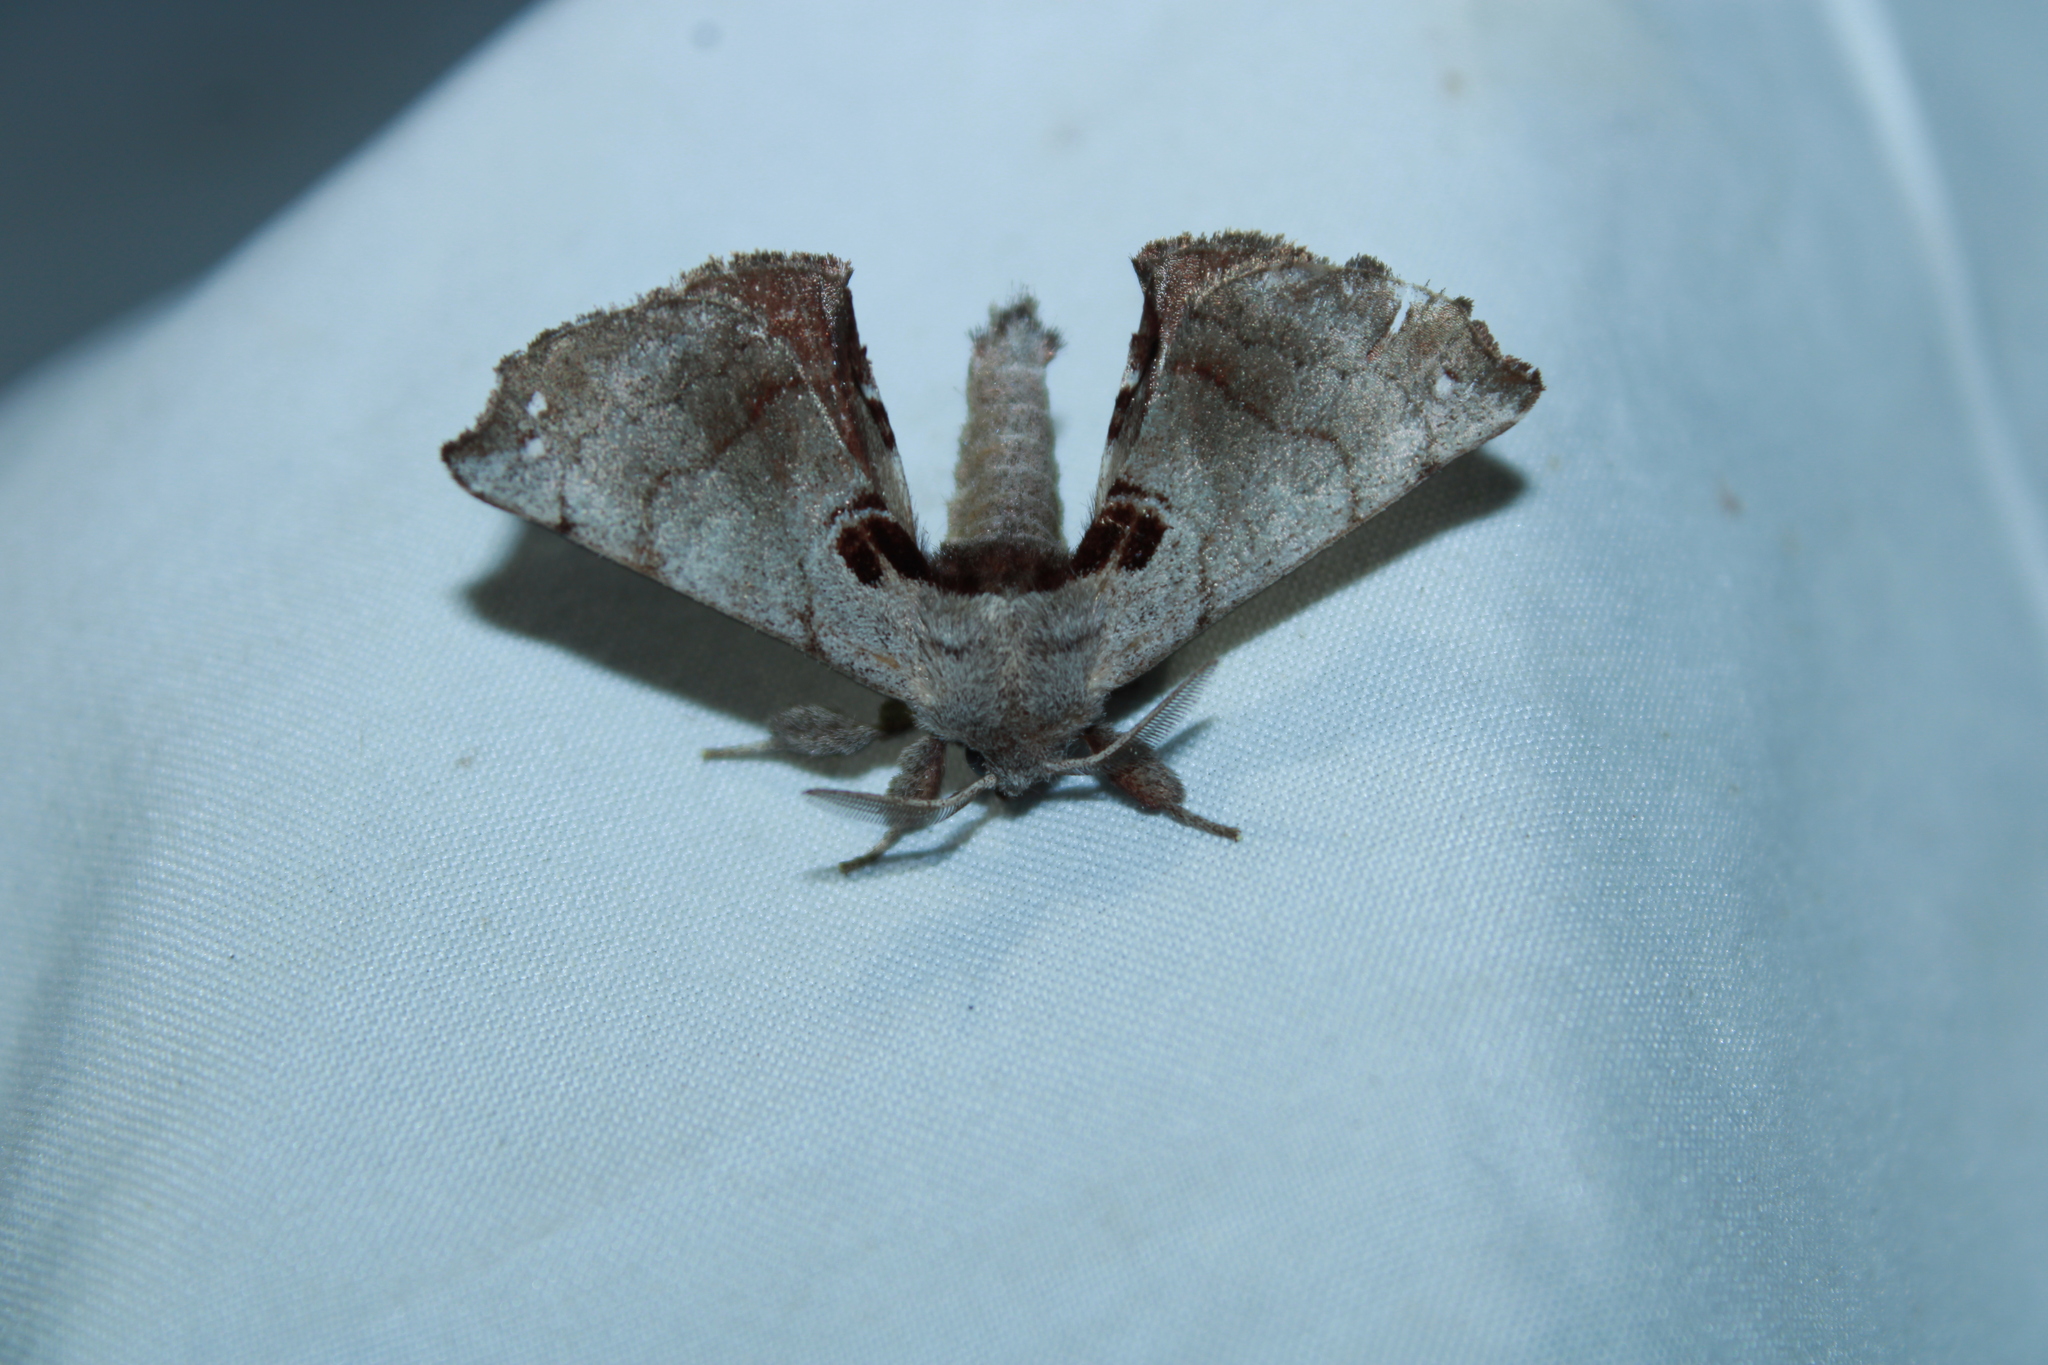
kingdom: Animalia
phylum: Arthropoda
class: Insecta
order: Lepidoptera
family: Apatelodidae
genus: Hygrochroa
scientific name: Hygrochroa Apatelodes torrefacta
